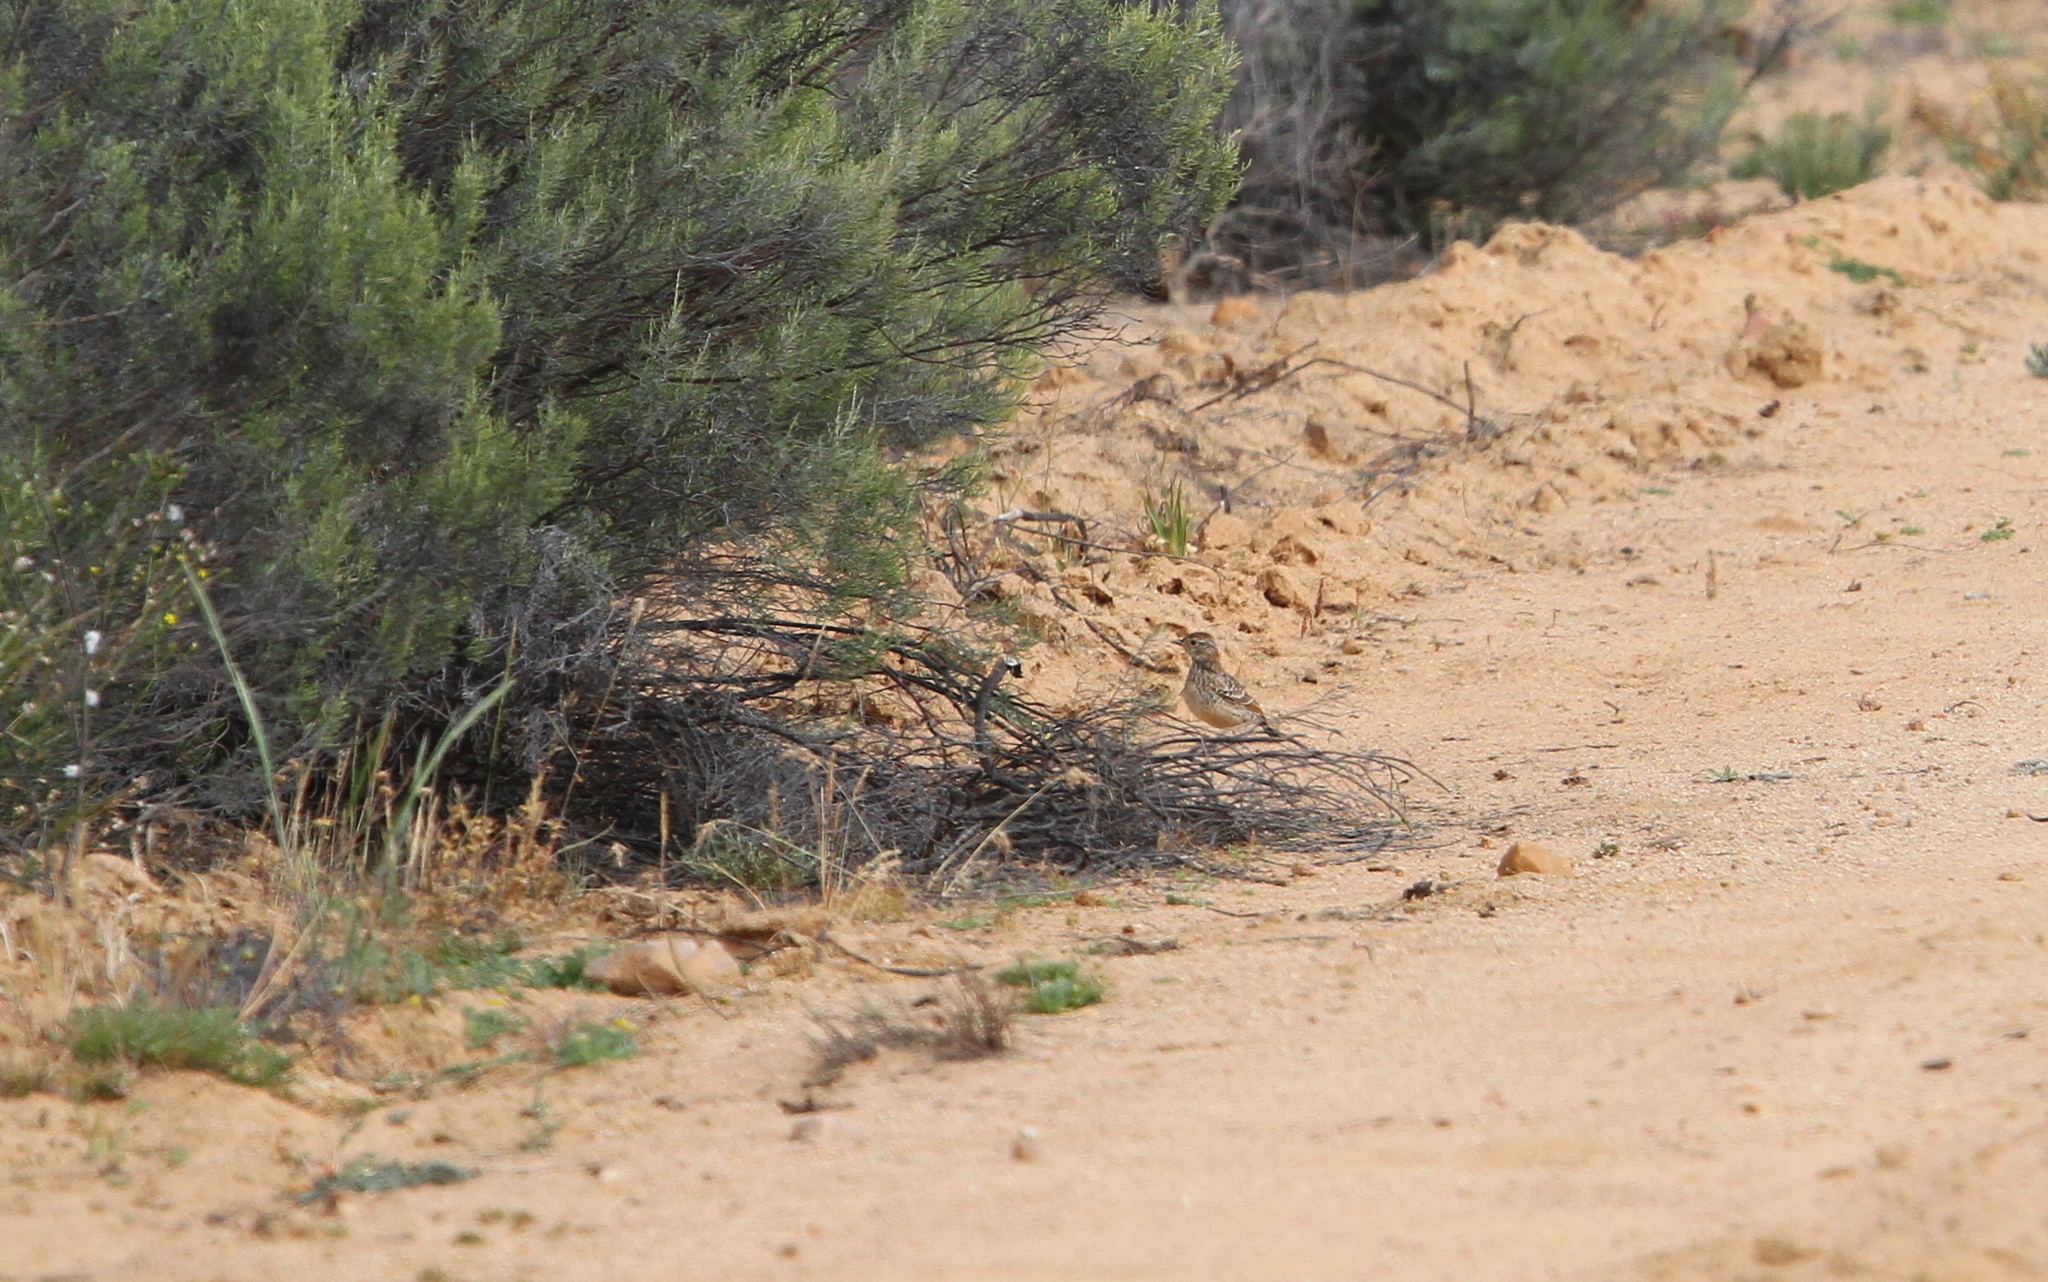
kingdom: Animalia
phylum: Chordata
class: Aves
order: Passeriformes
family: Alaudidae
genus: Mirafra
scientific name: Mirafra apiata
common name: Cape clapper lark
